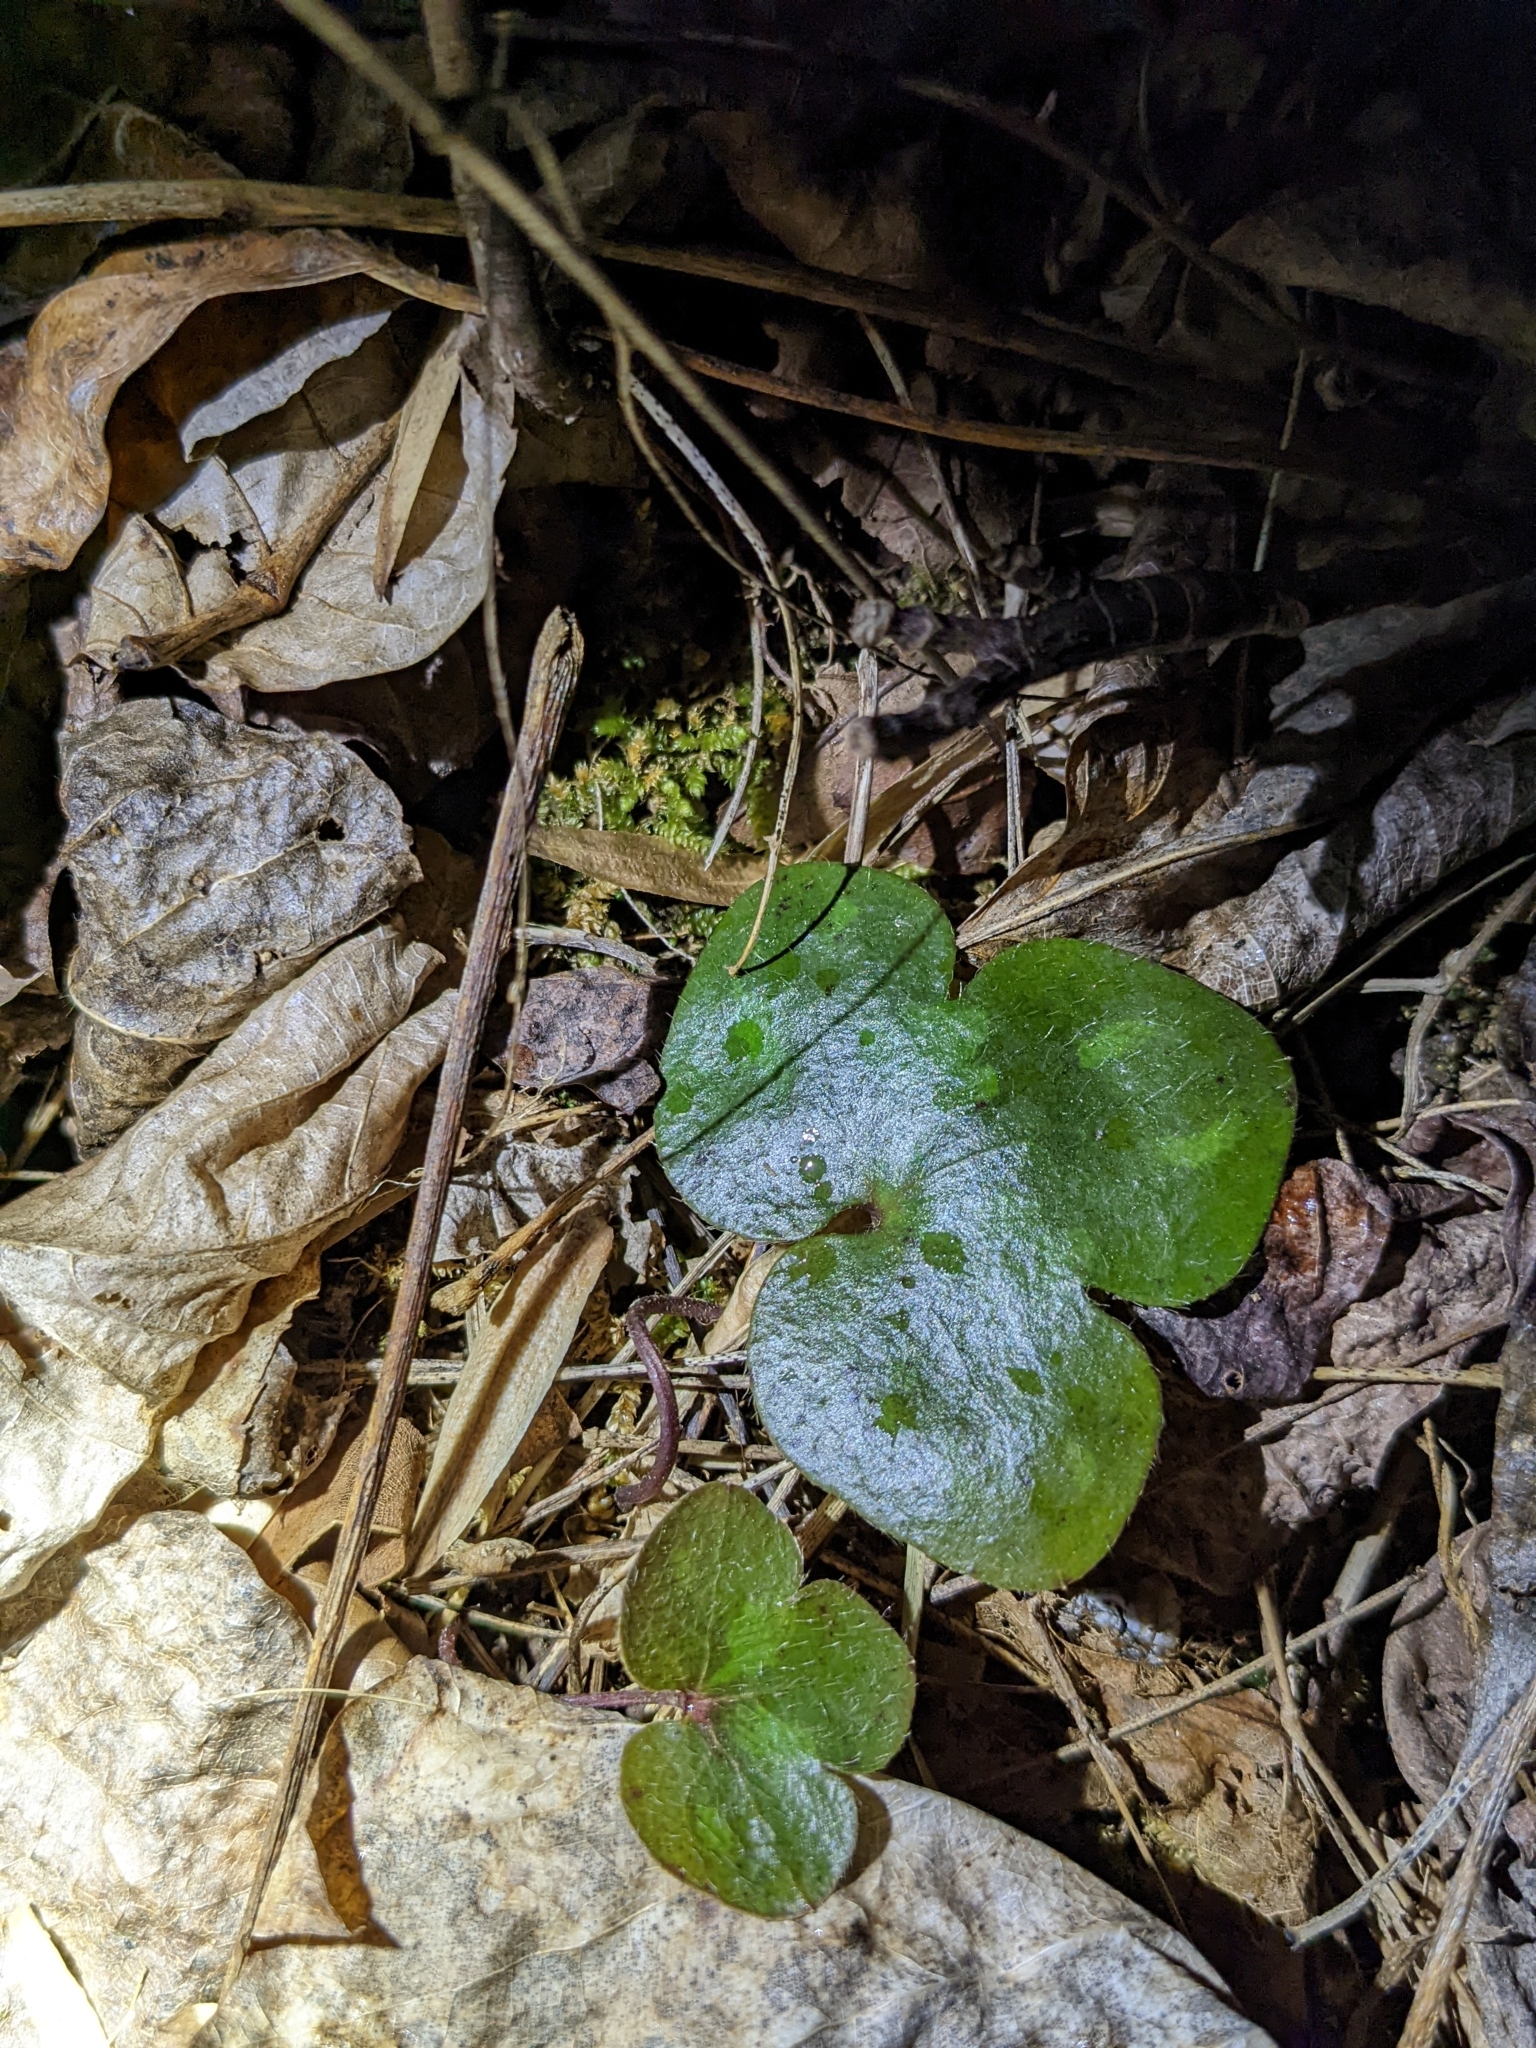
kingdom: Plantae
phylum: Tracheophyta
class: Magnoliopsida
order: Ranunculales
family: Ranunculaceae
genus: Hepatica
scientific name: Hepatica americana
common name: American hepatica
